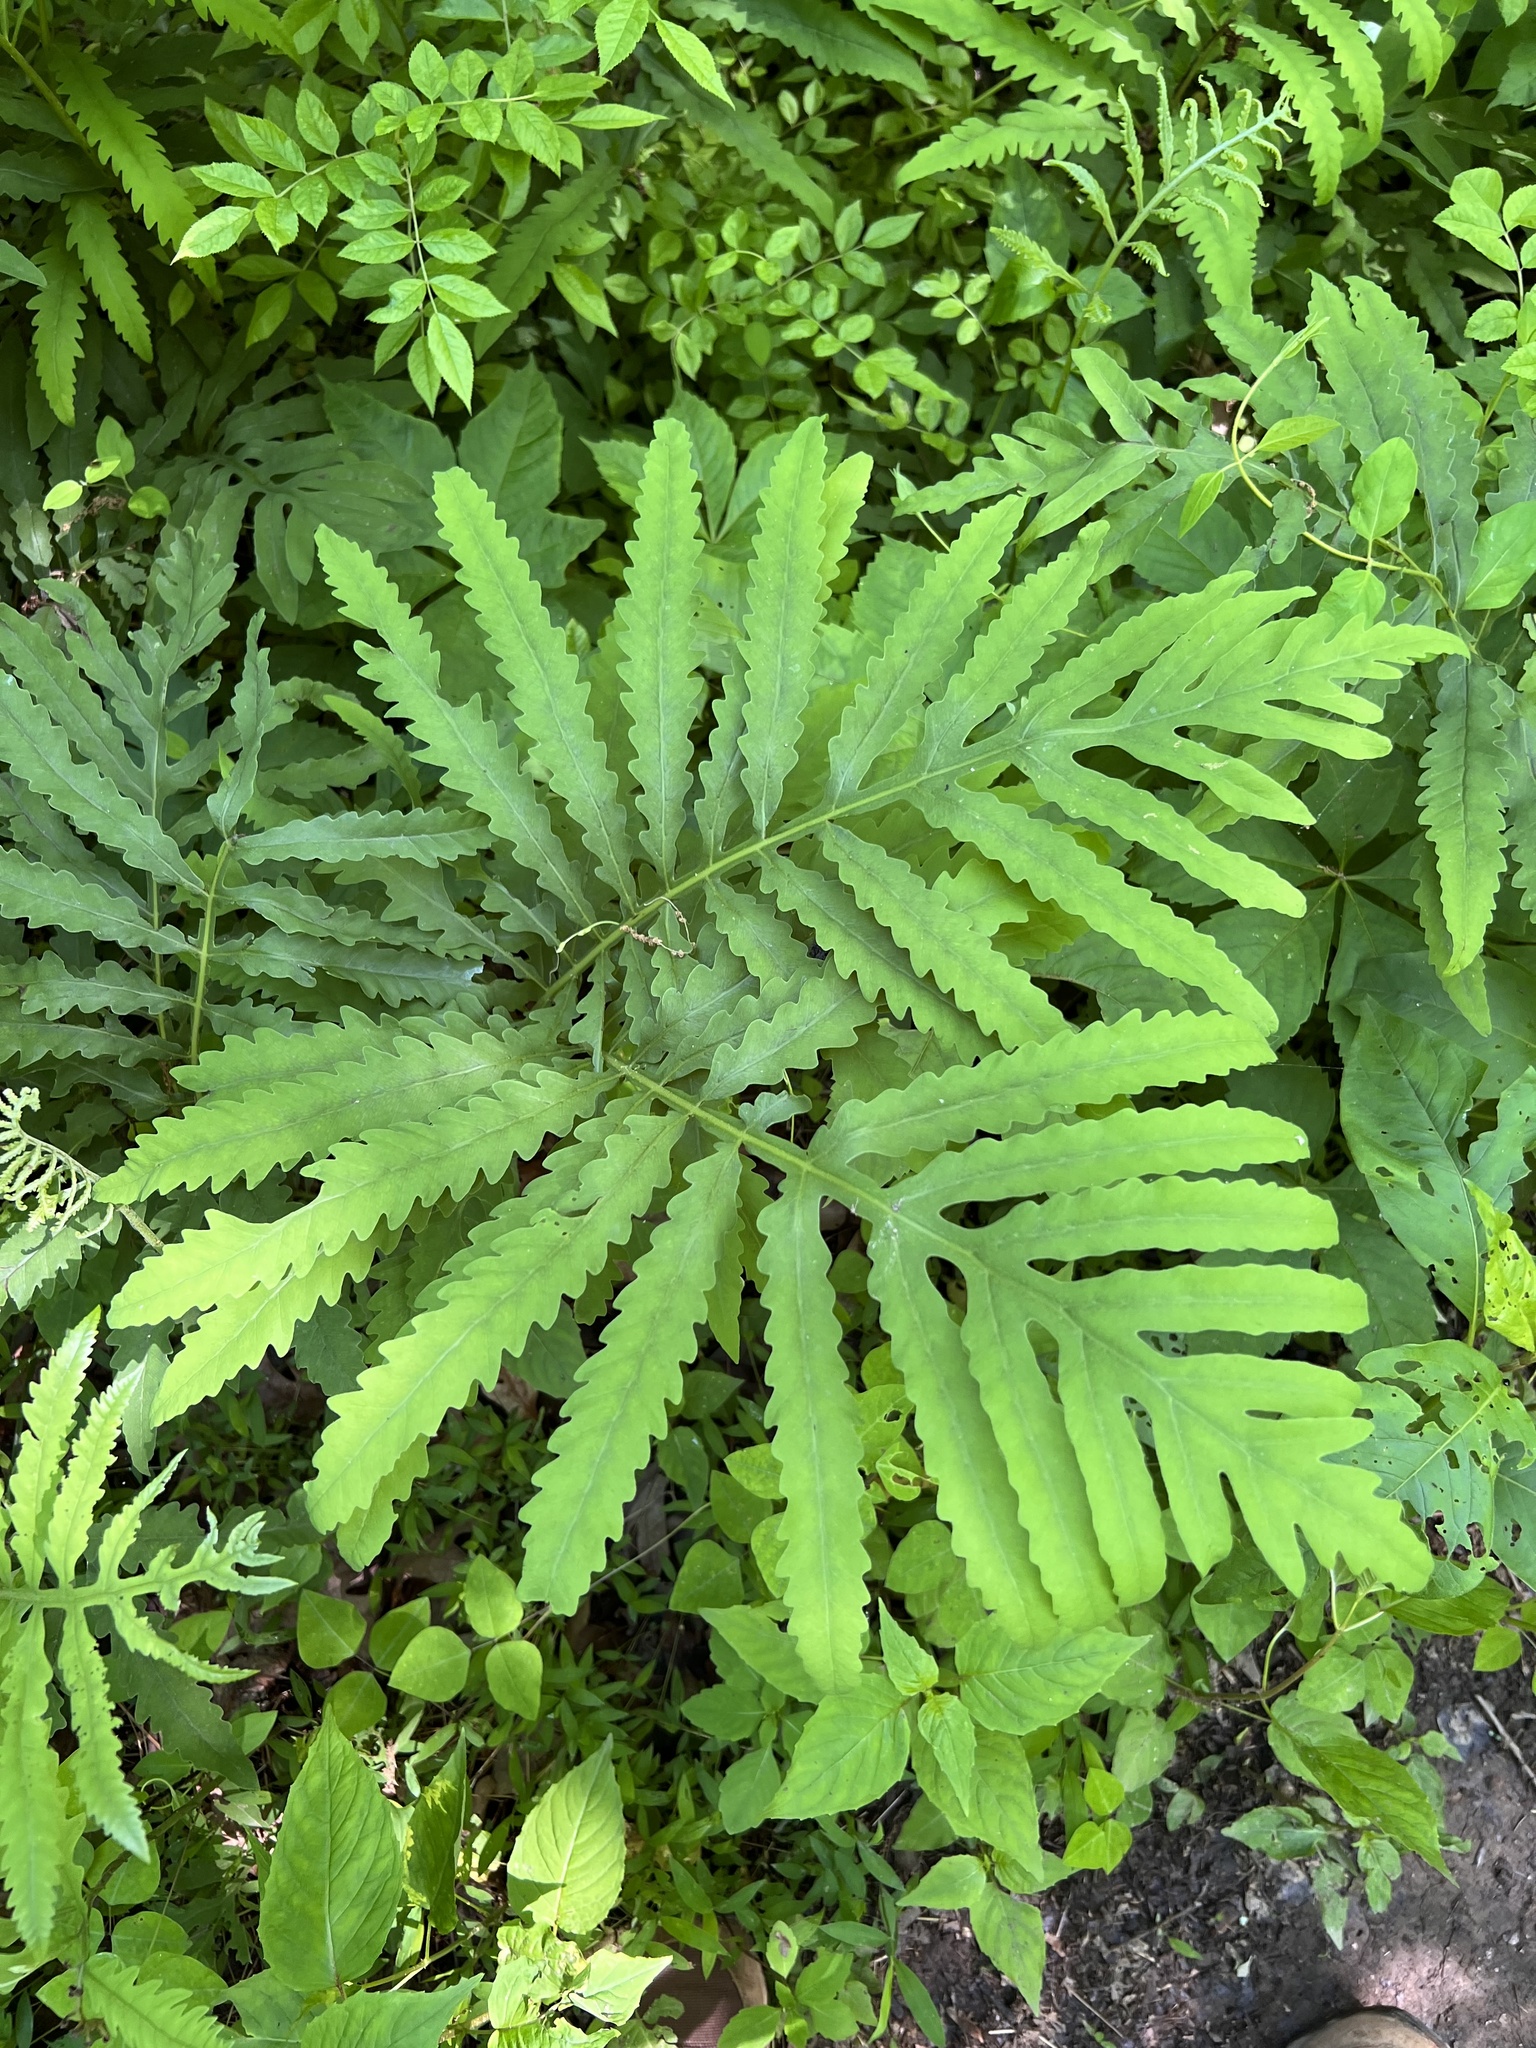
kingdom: Plantae
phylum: Tracheophyta
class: Polypodiopsida
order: Polypodiales
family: Onocleaceae
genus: Onoclea
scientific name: Onoclea sensibilis
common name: Sensitive fern
